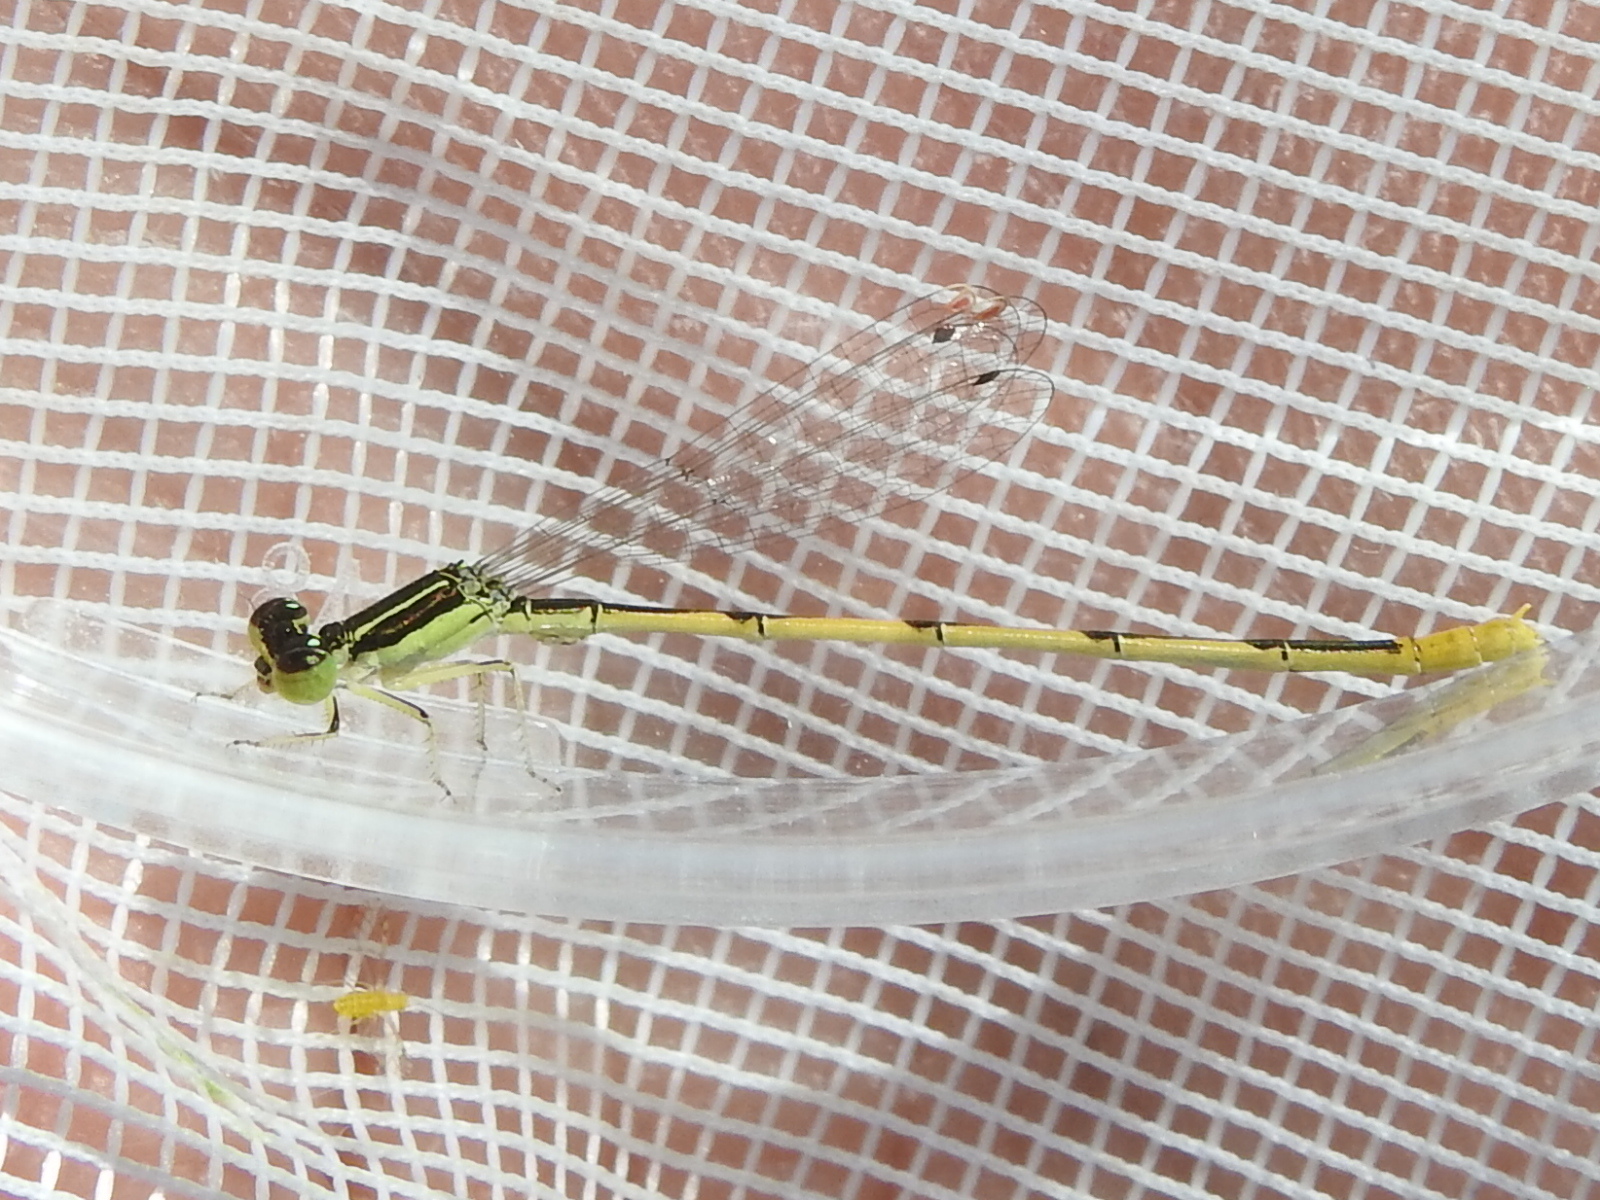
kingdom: Animalia
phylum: Arthropoda
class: Insecta
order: Odonata
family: Coenagrionidae
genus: Ischnura
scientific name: Ischnura hastata
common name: Citrine forktail
